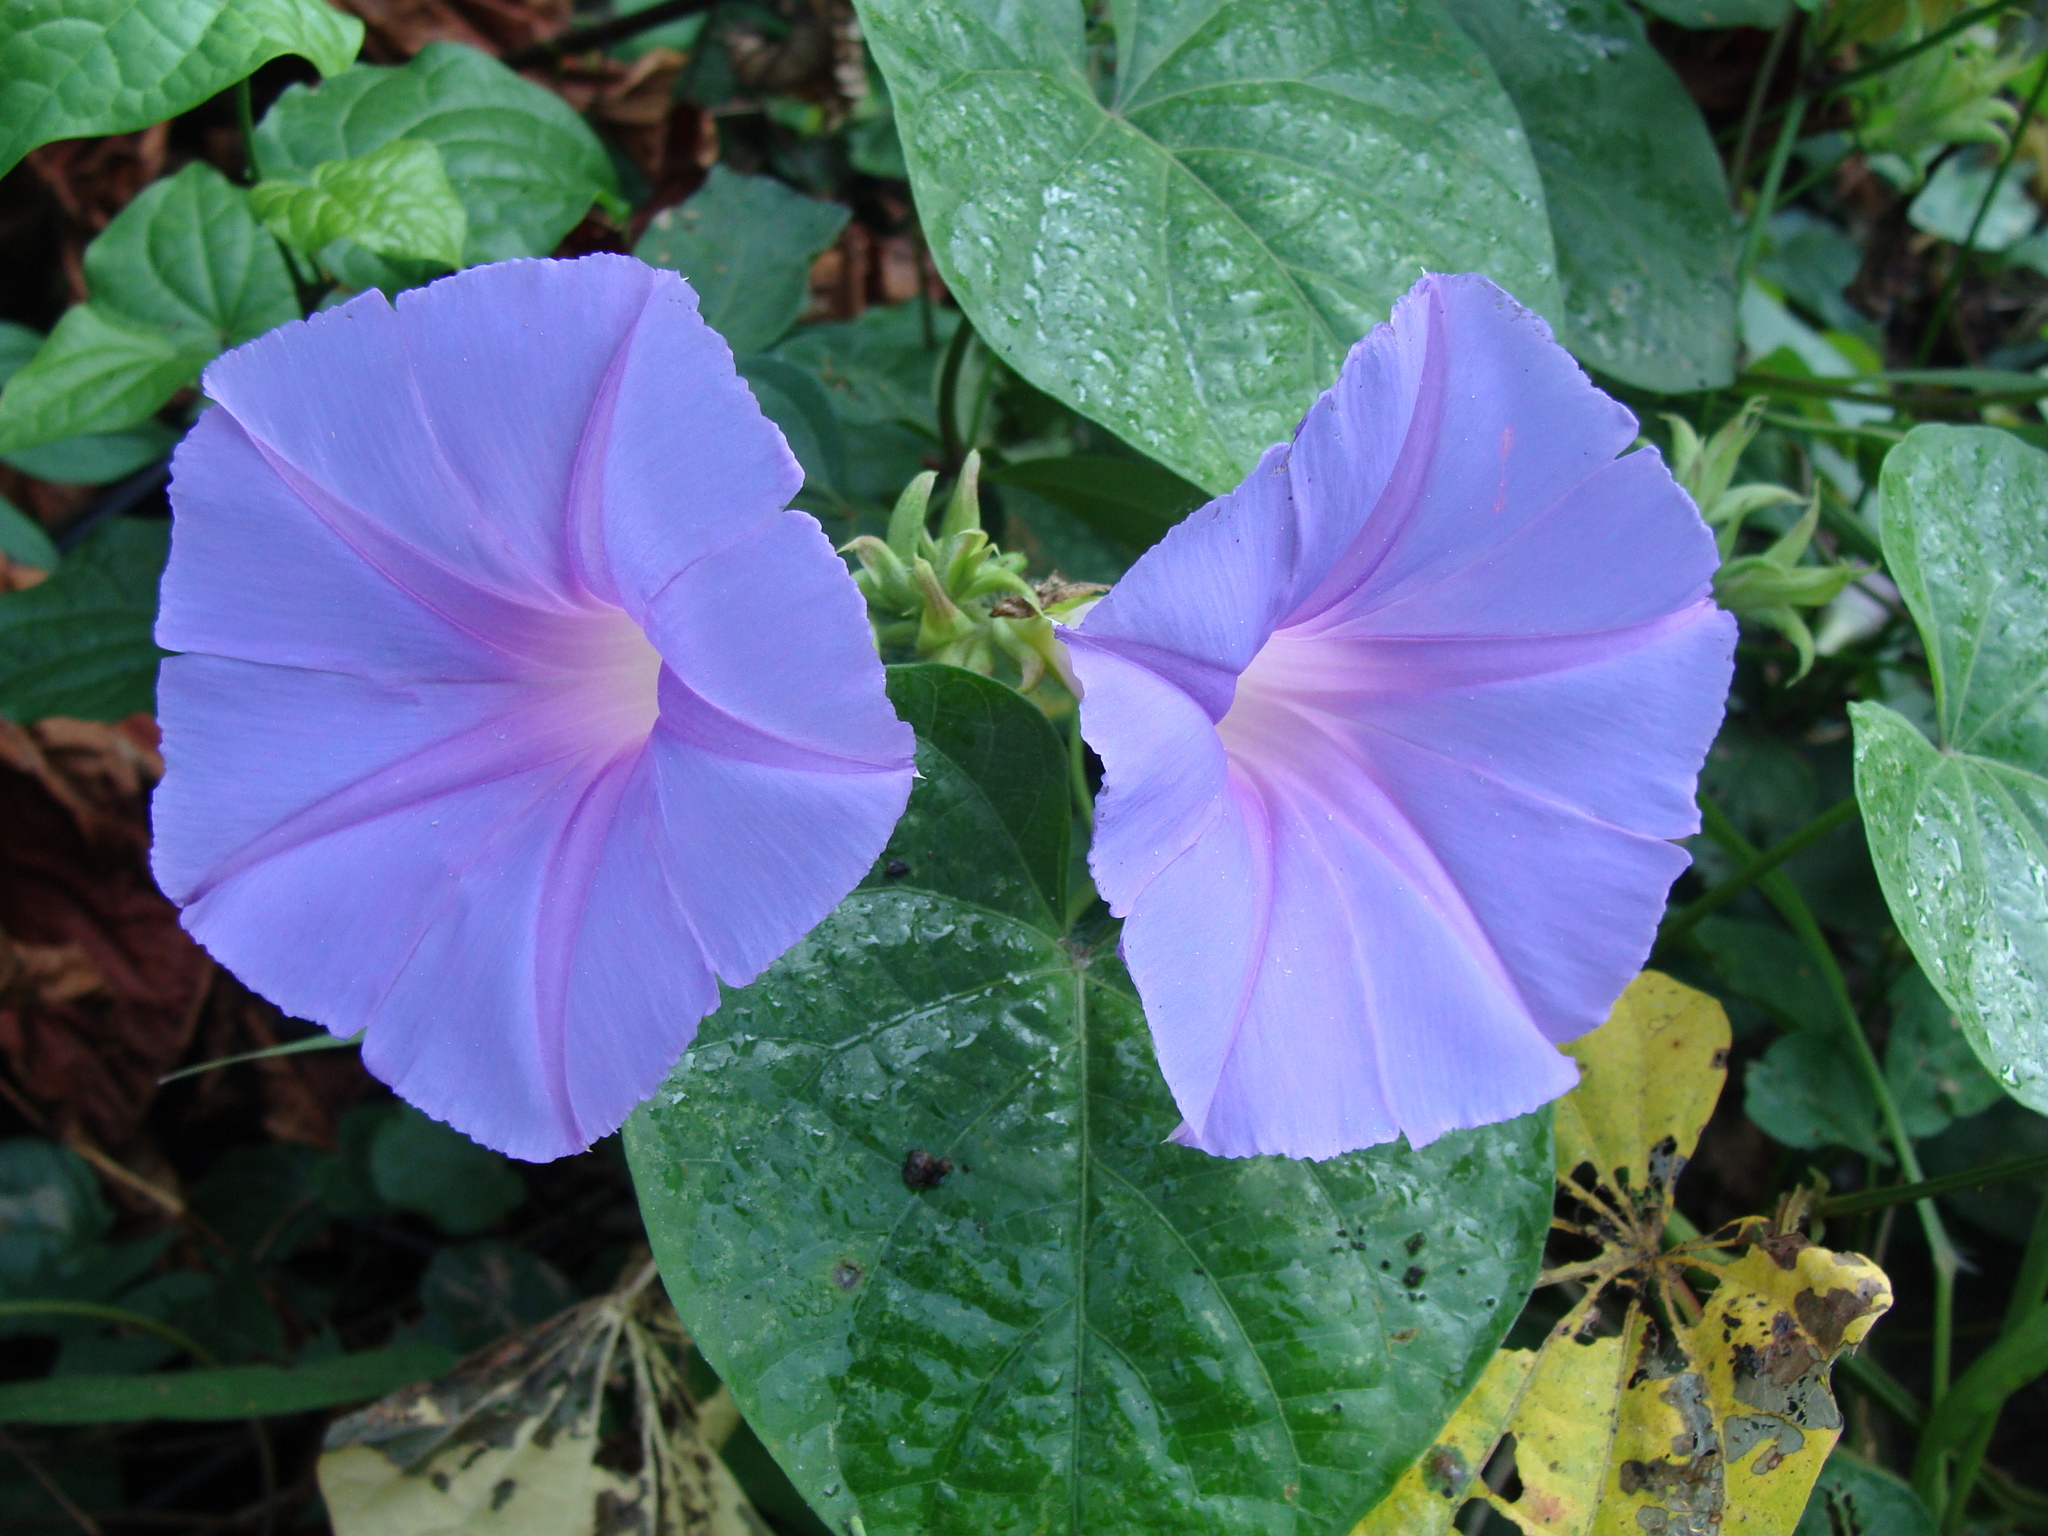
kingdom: Plantae
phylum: Tracheophyta
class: Magnoliopsida
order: Solanales
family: Convolvulaceae
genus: Ipomoea
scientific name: Ipomoea mitchelliae
